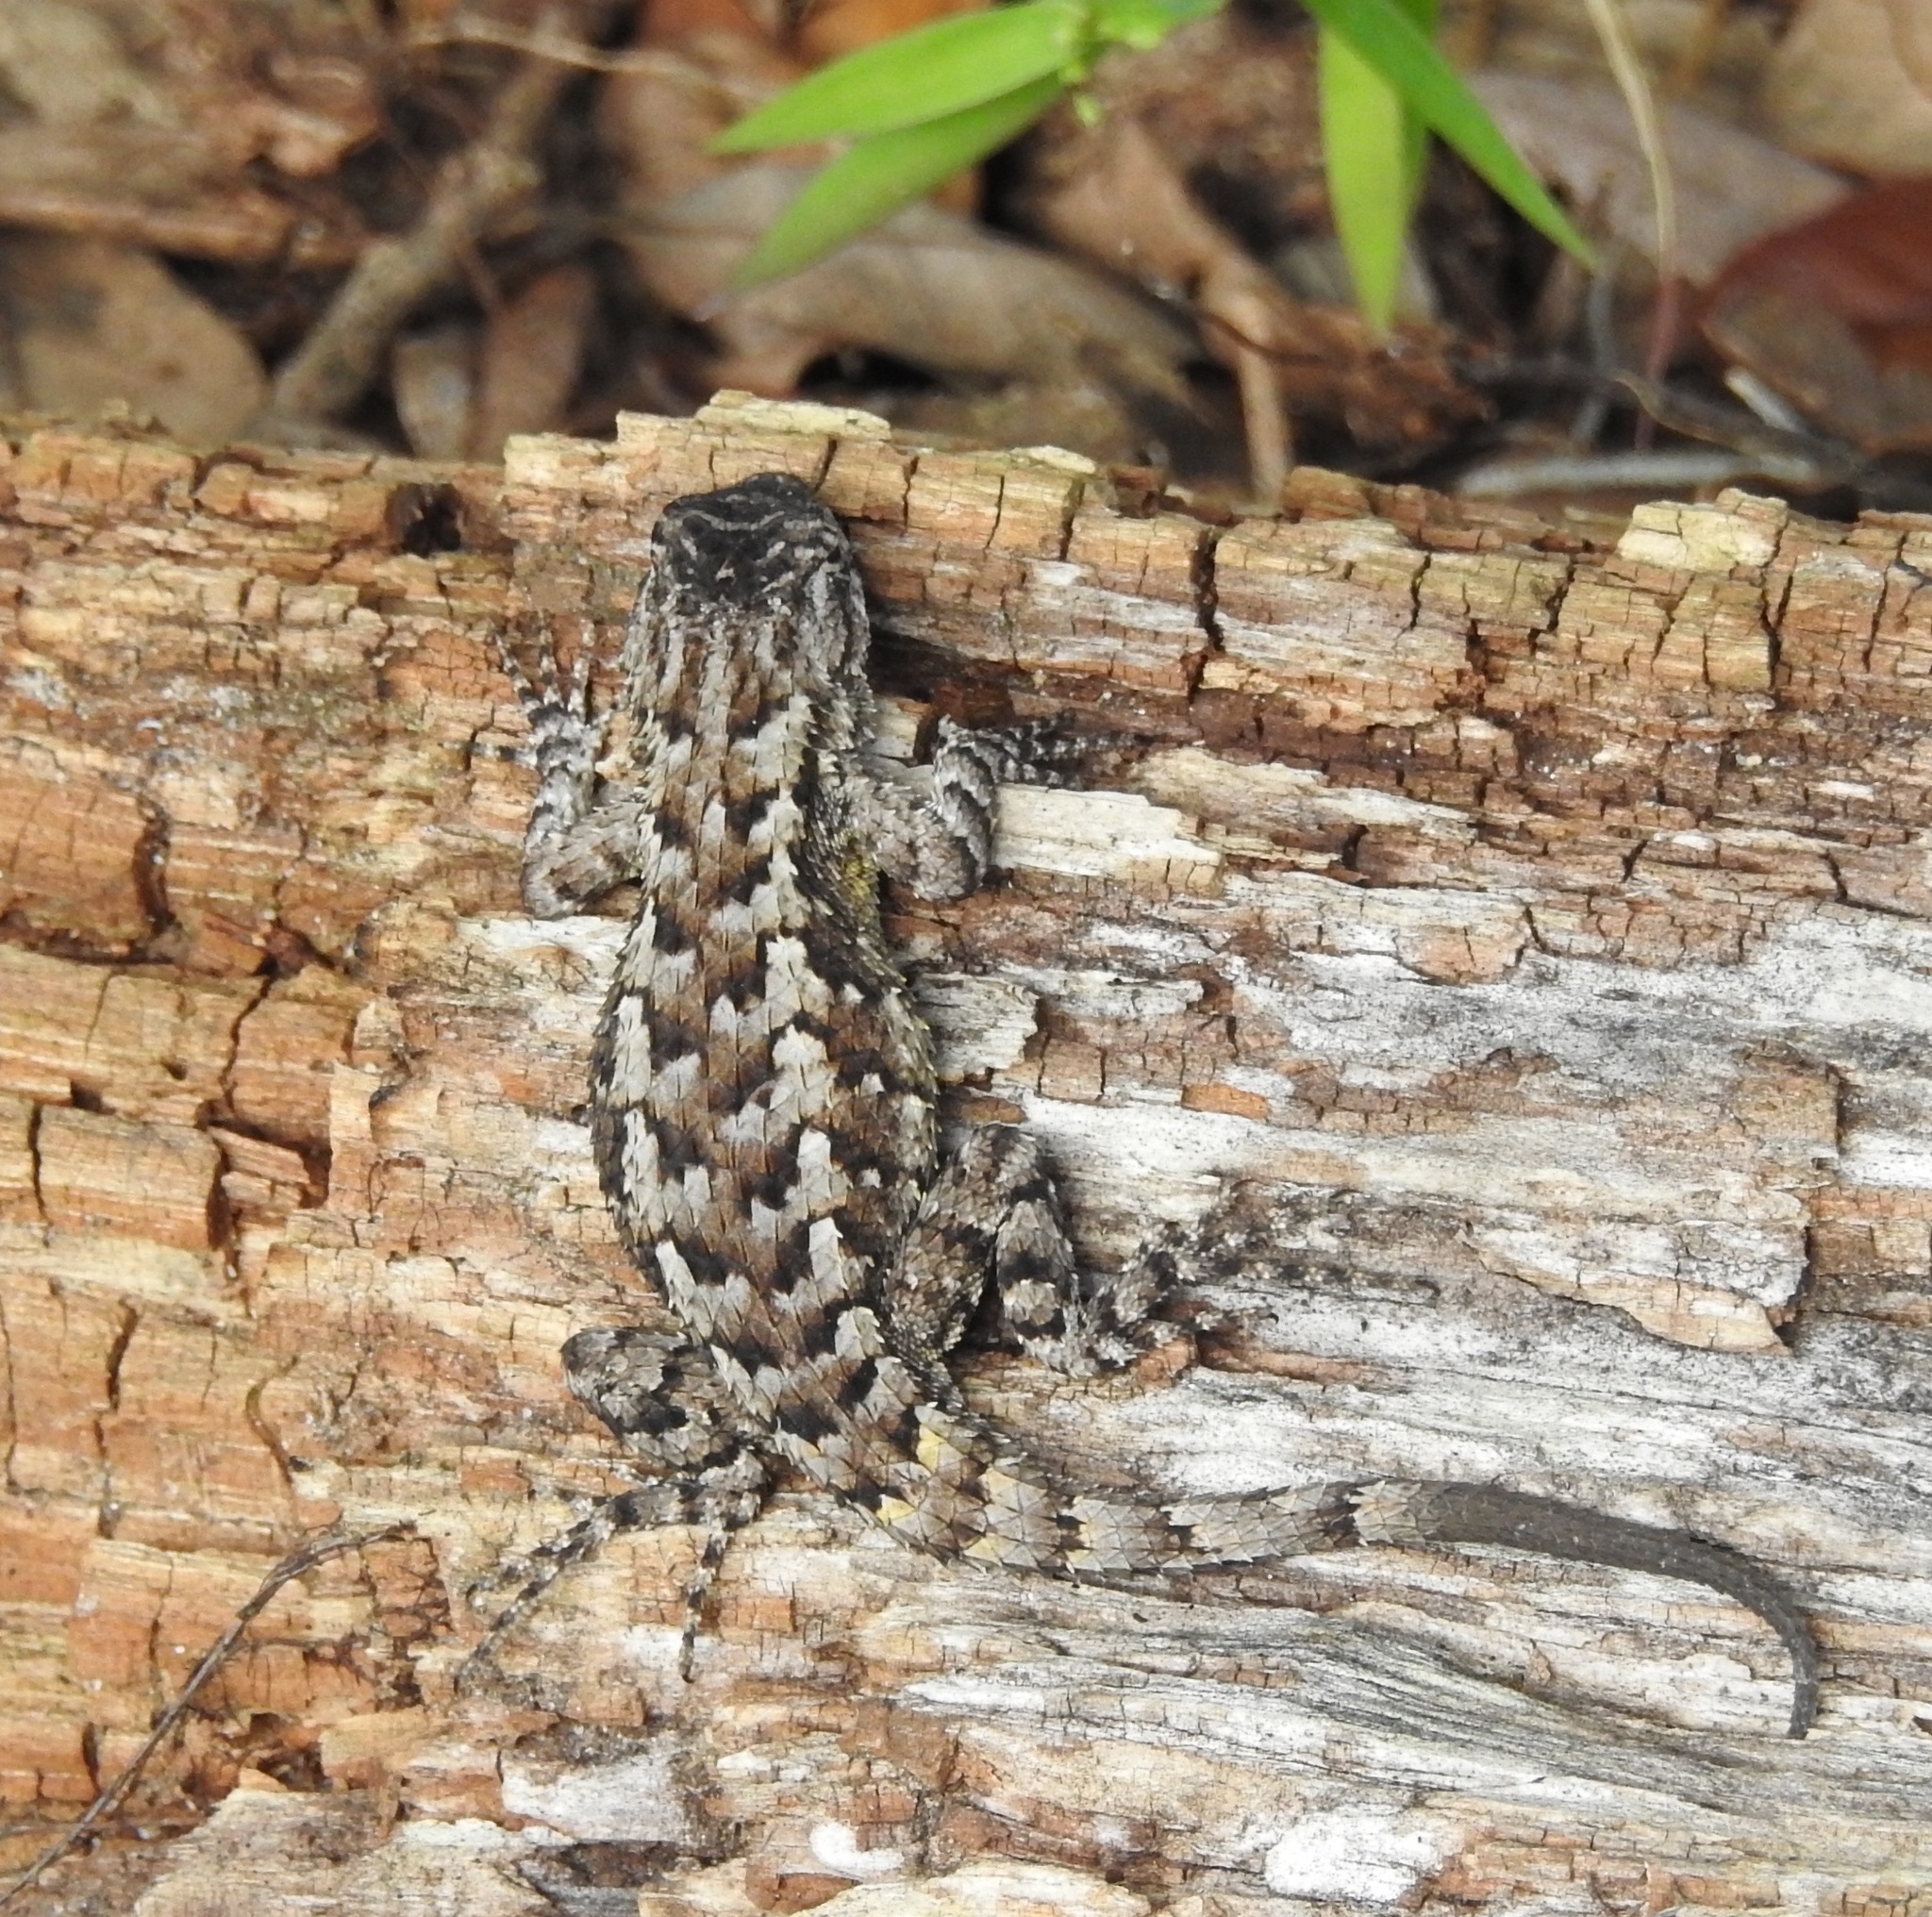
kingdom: Animalia
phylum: Chordata
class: Squamata
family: Phrynosomatidae
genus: Sceloporus
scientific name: Sceloporus undulatus
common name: Eastern fence lizard
